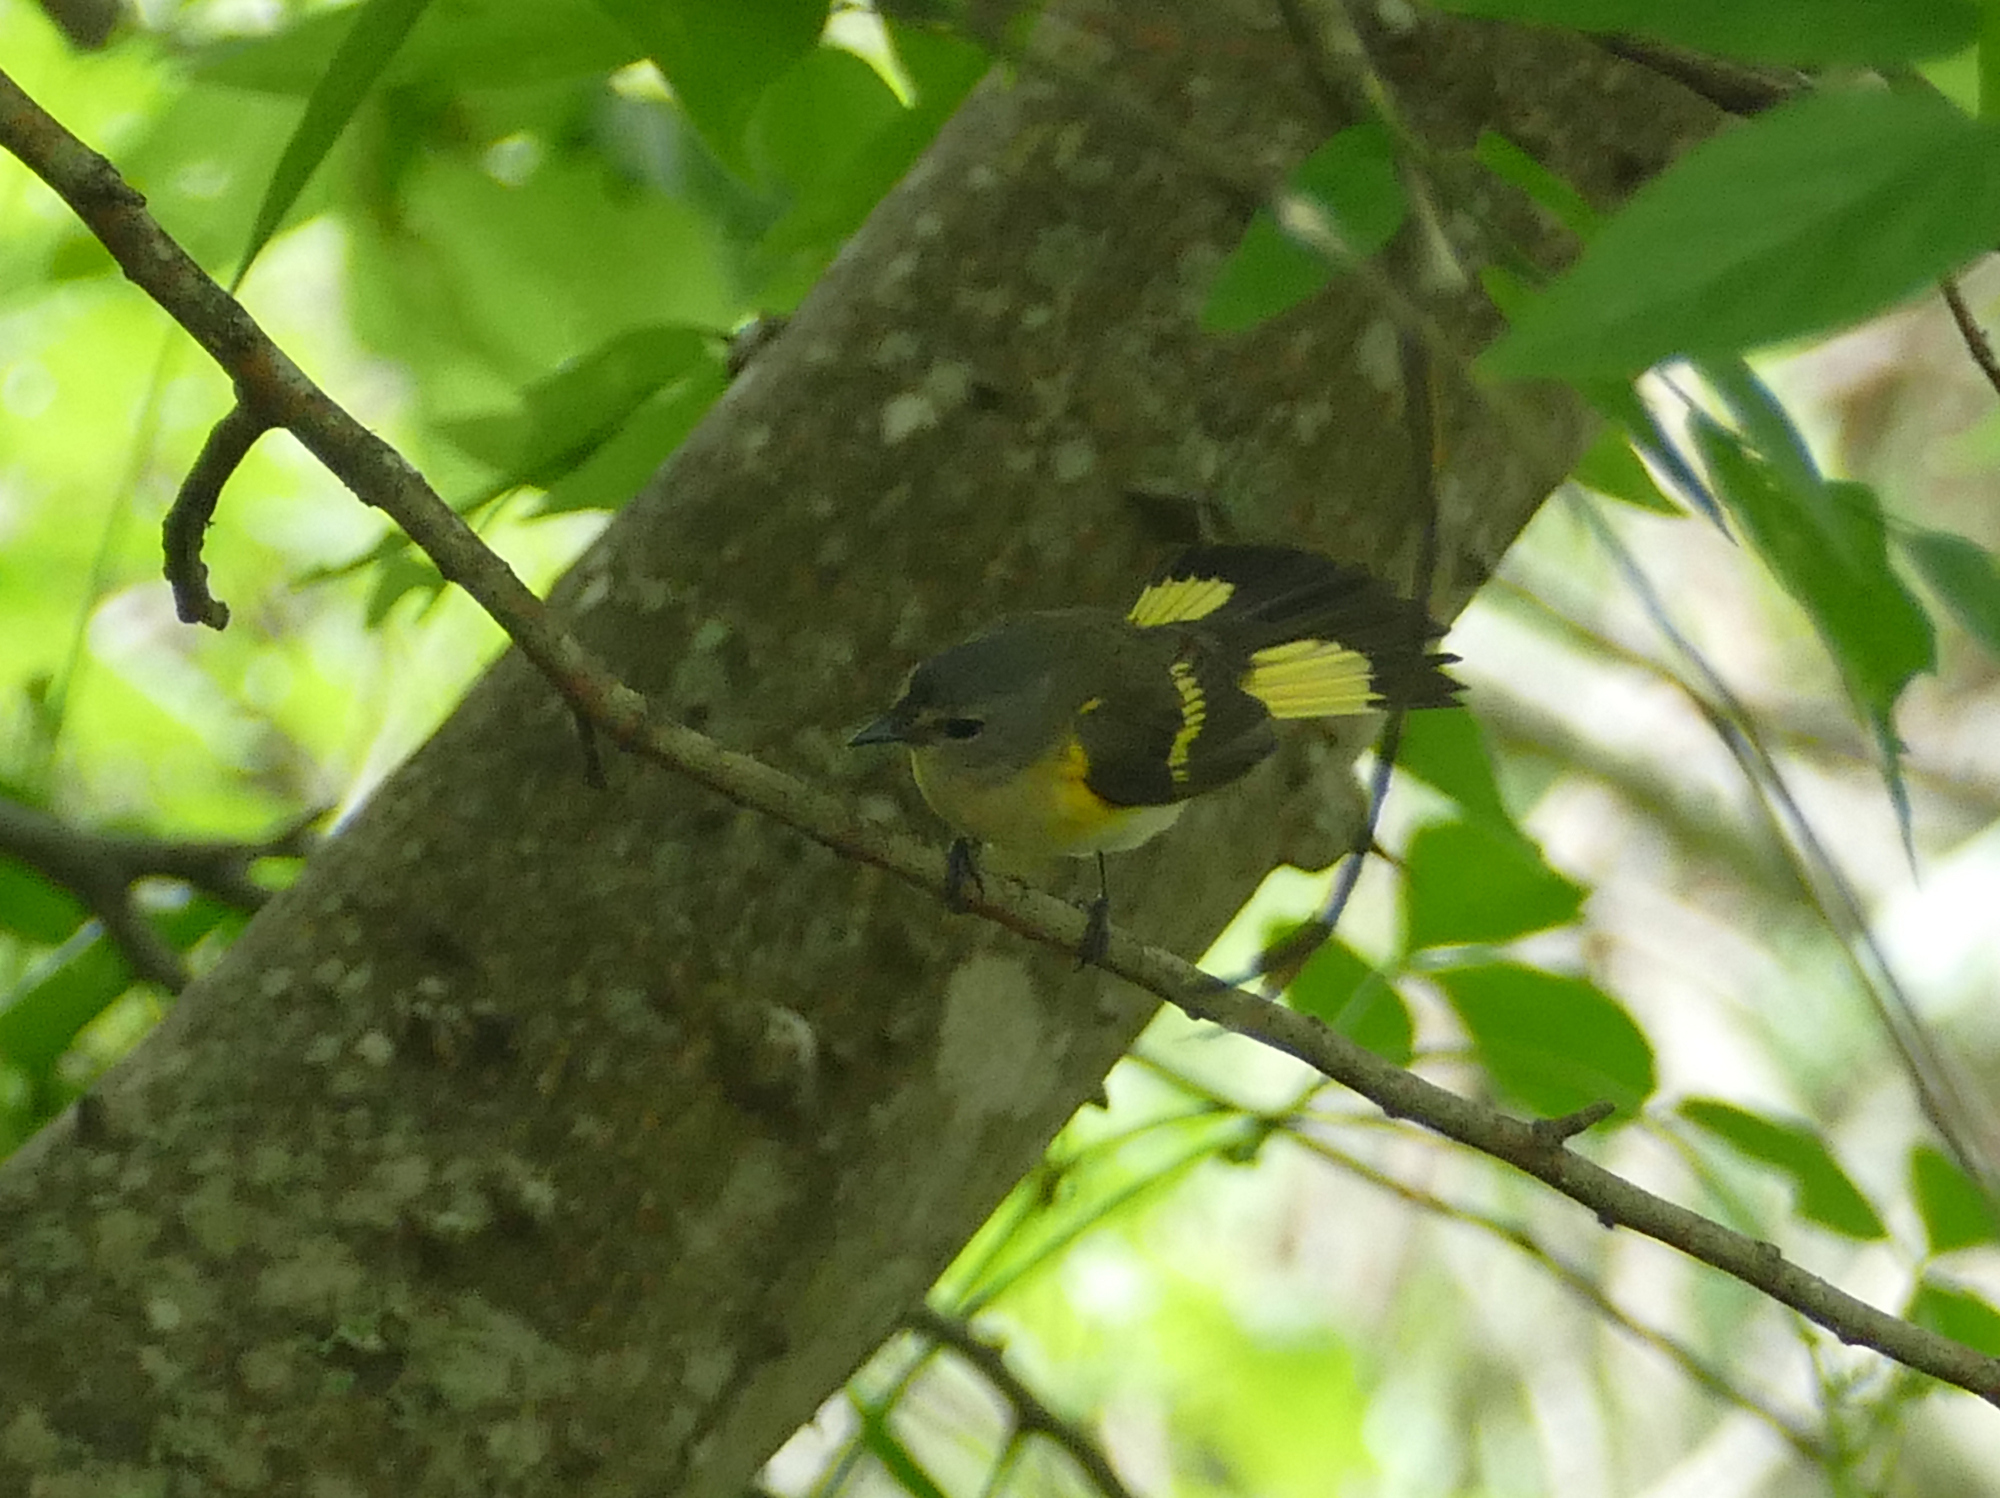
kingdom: Animalia
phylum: Chordata
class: Aves
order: Passeriformes
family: Parulidae
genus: Setophaga
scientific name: Setophaga ruticilla
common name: American redstart
